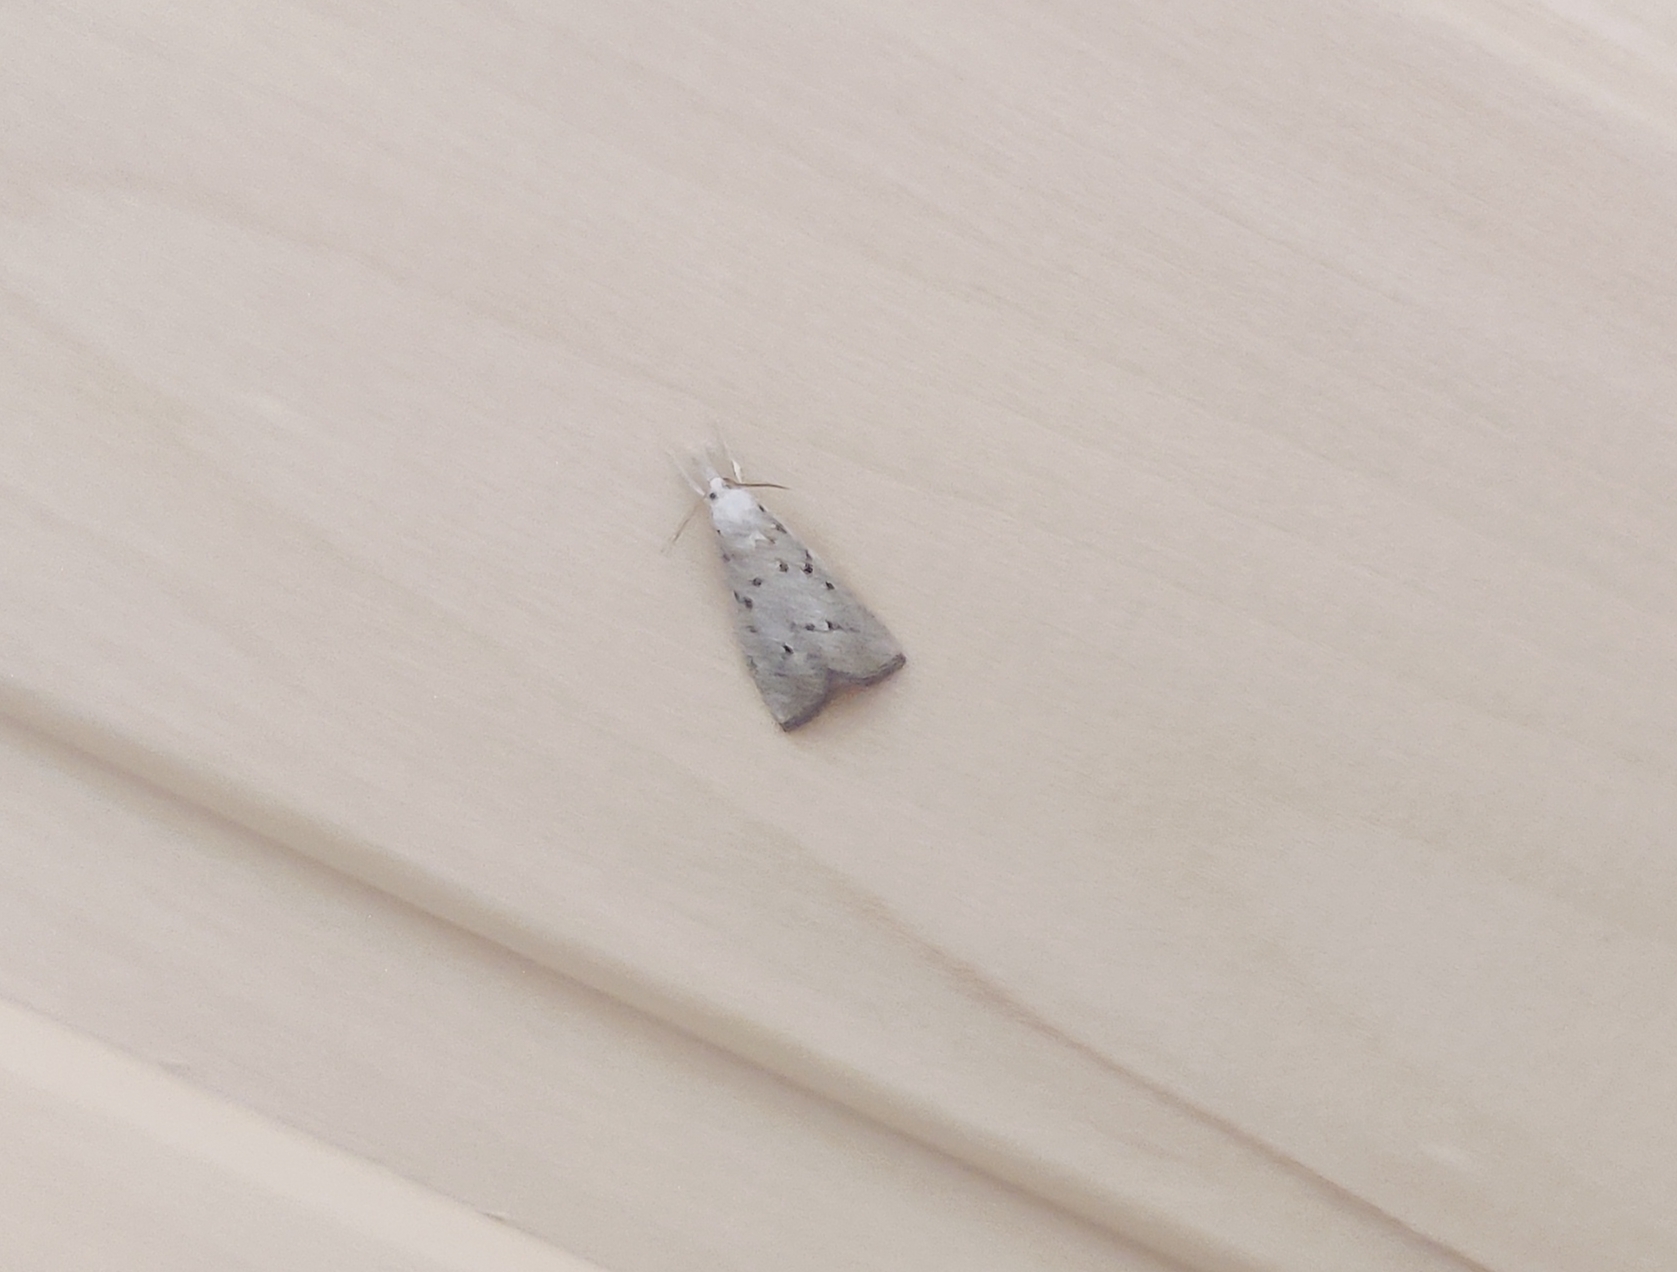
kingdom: Animalia
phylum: Arthropoda
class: Insecta
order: Lepidoptera
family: Crambidae
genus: Calamotropha
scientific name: Calamotropha paludella
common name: Bulrush veneer
